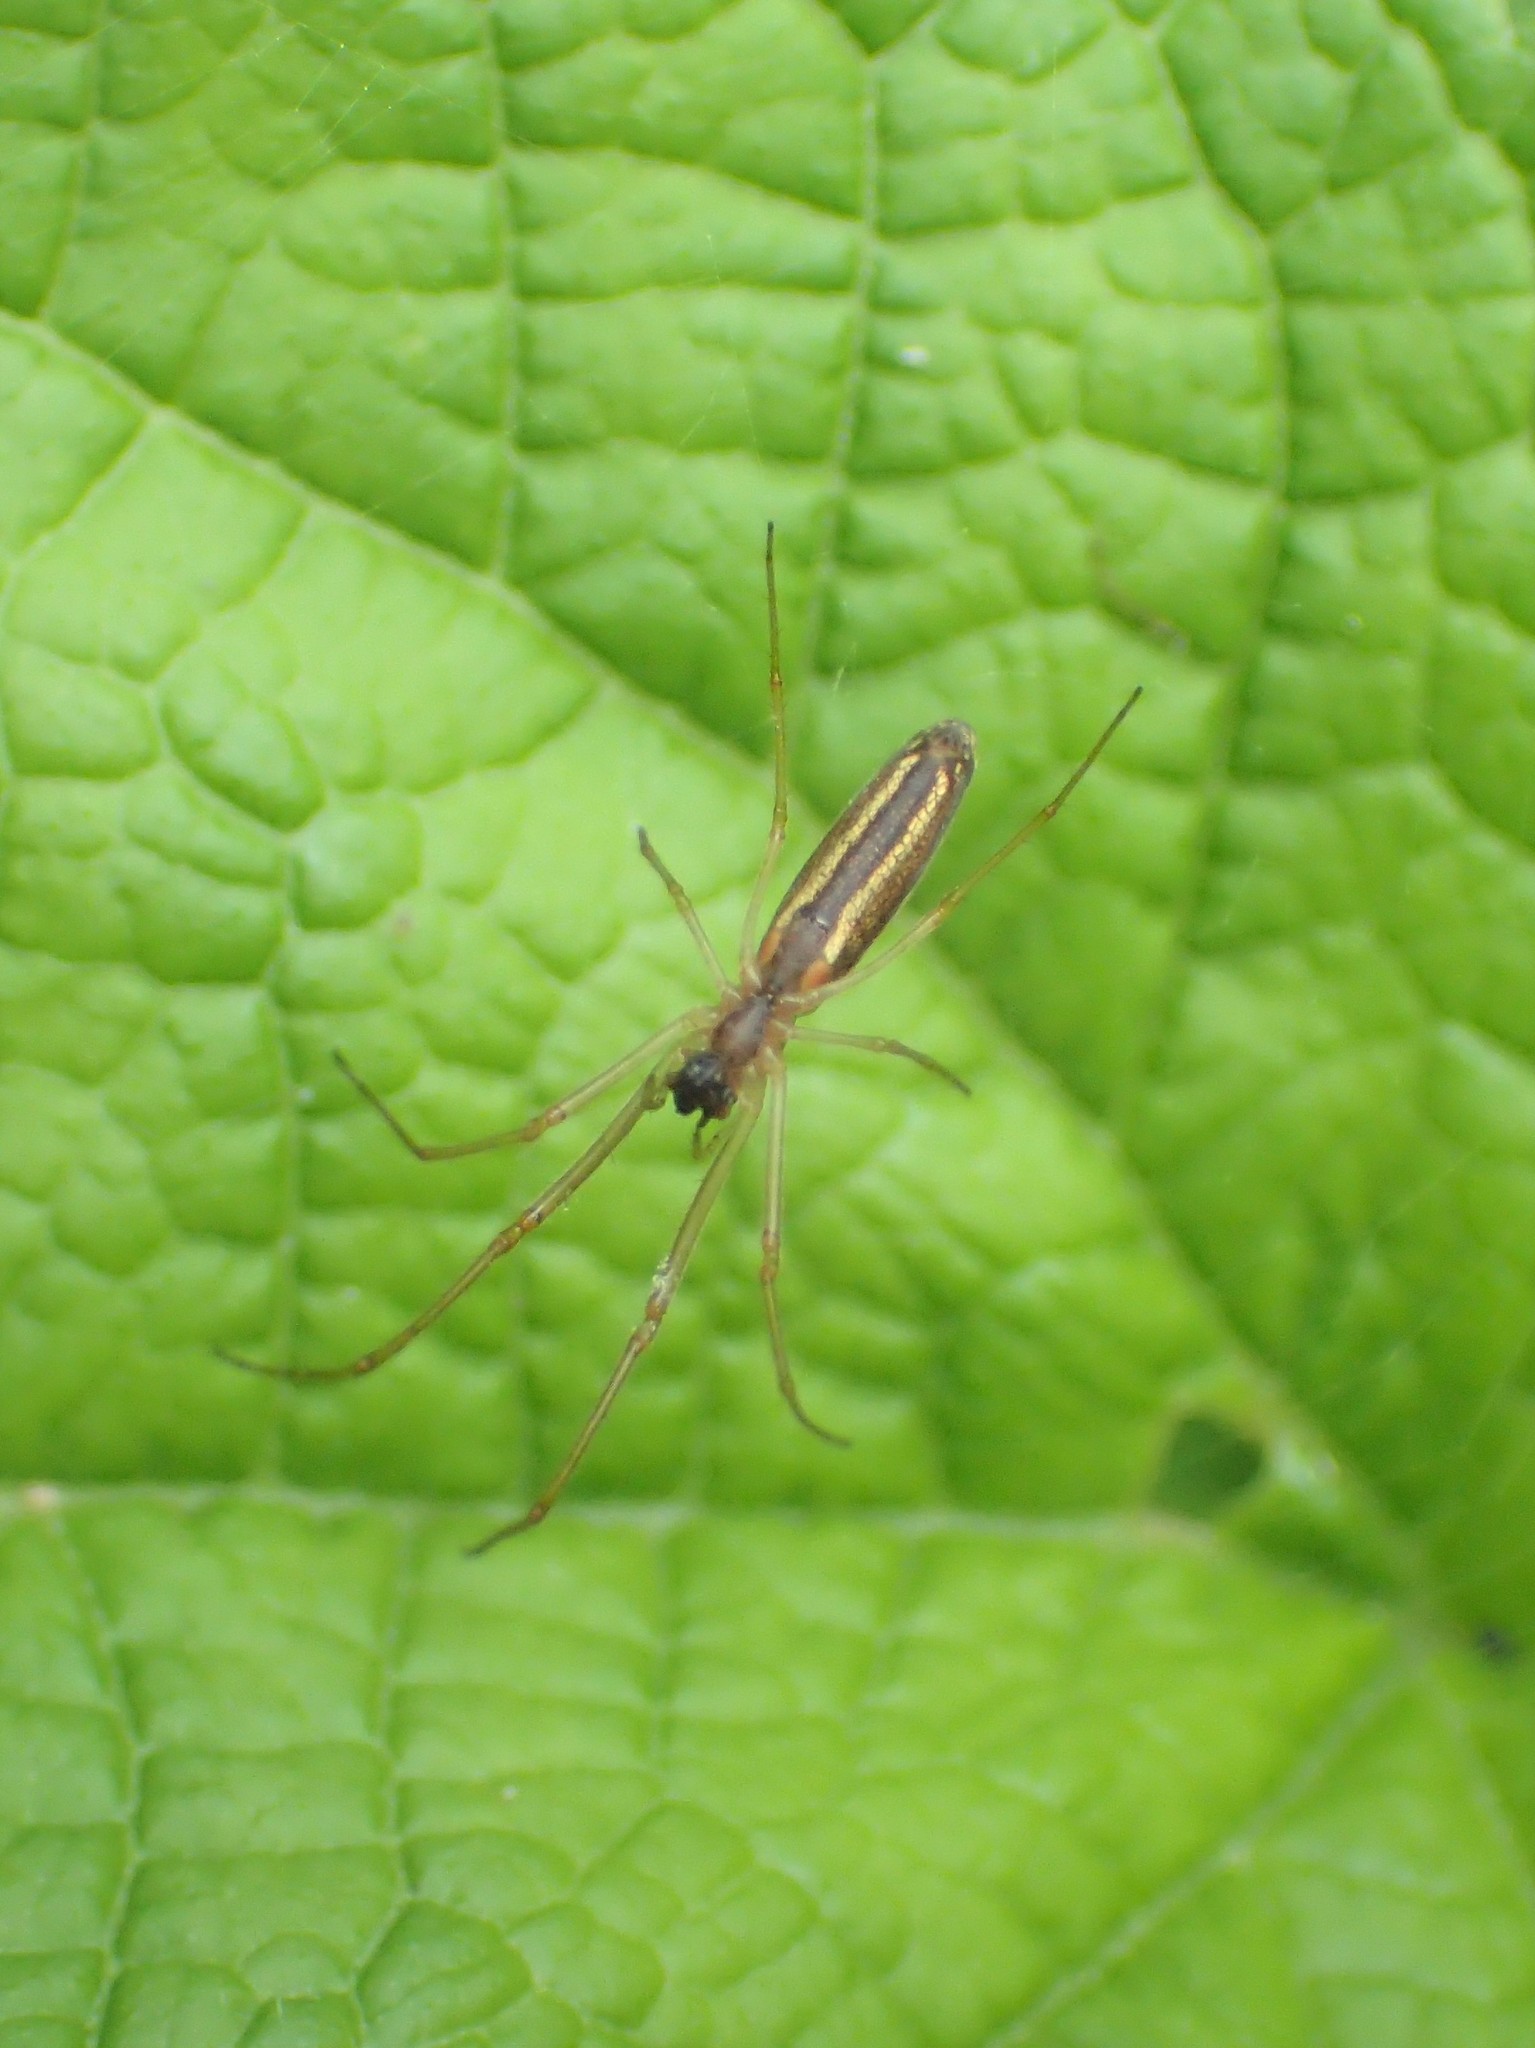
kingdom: Animalia
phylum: Arthropoda
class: Arachnida
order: Araneae
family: Tetragnathidae
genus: Tetragnatha
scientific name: Tetragnatha
